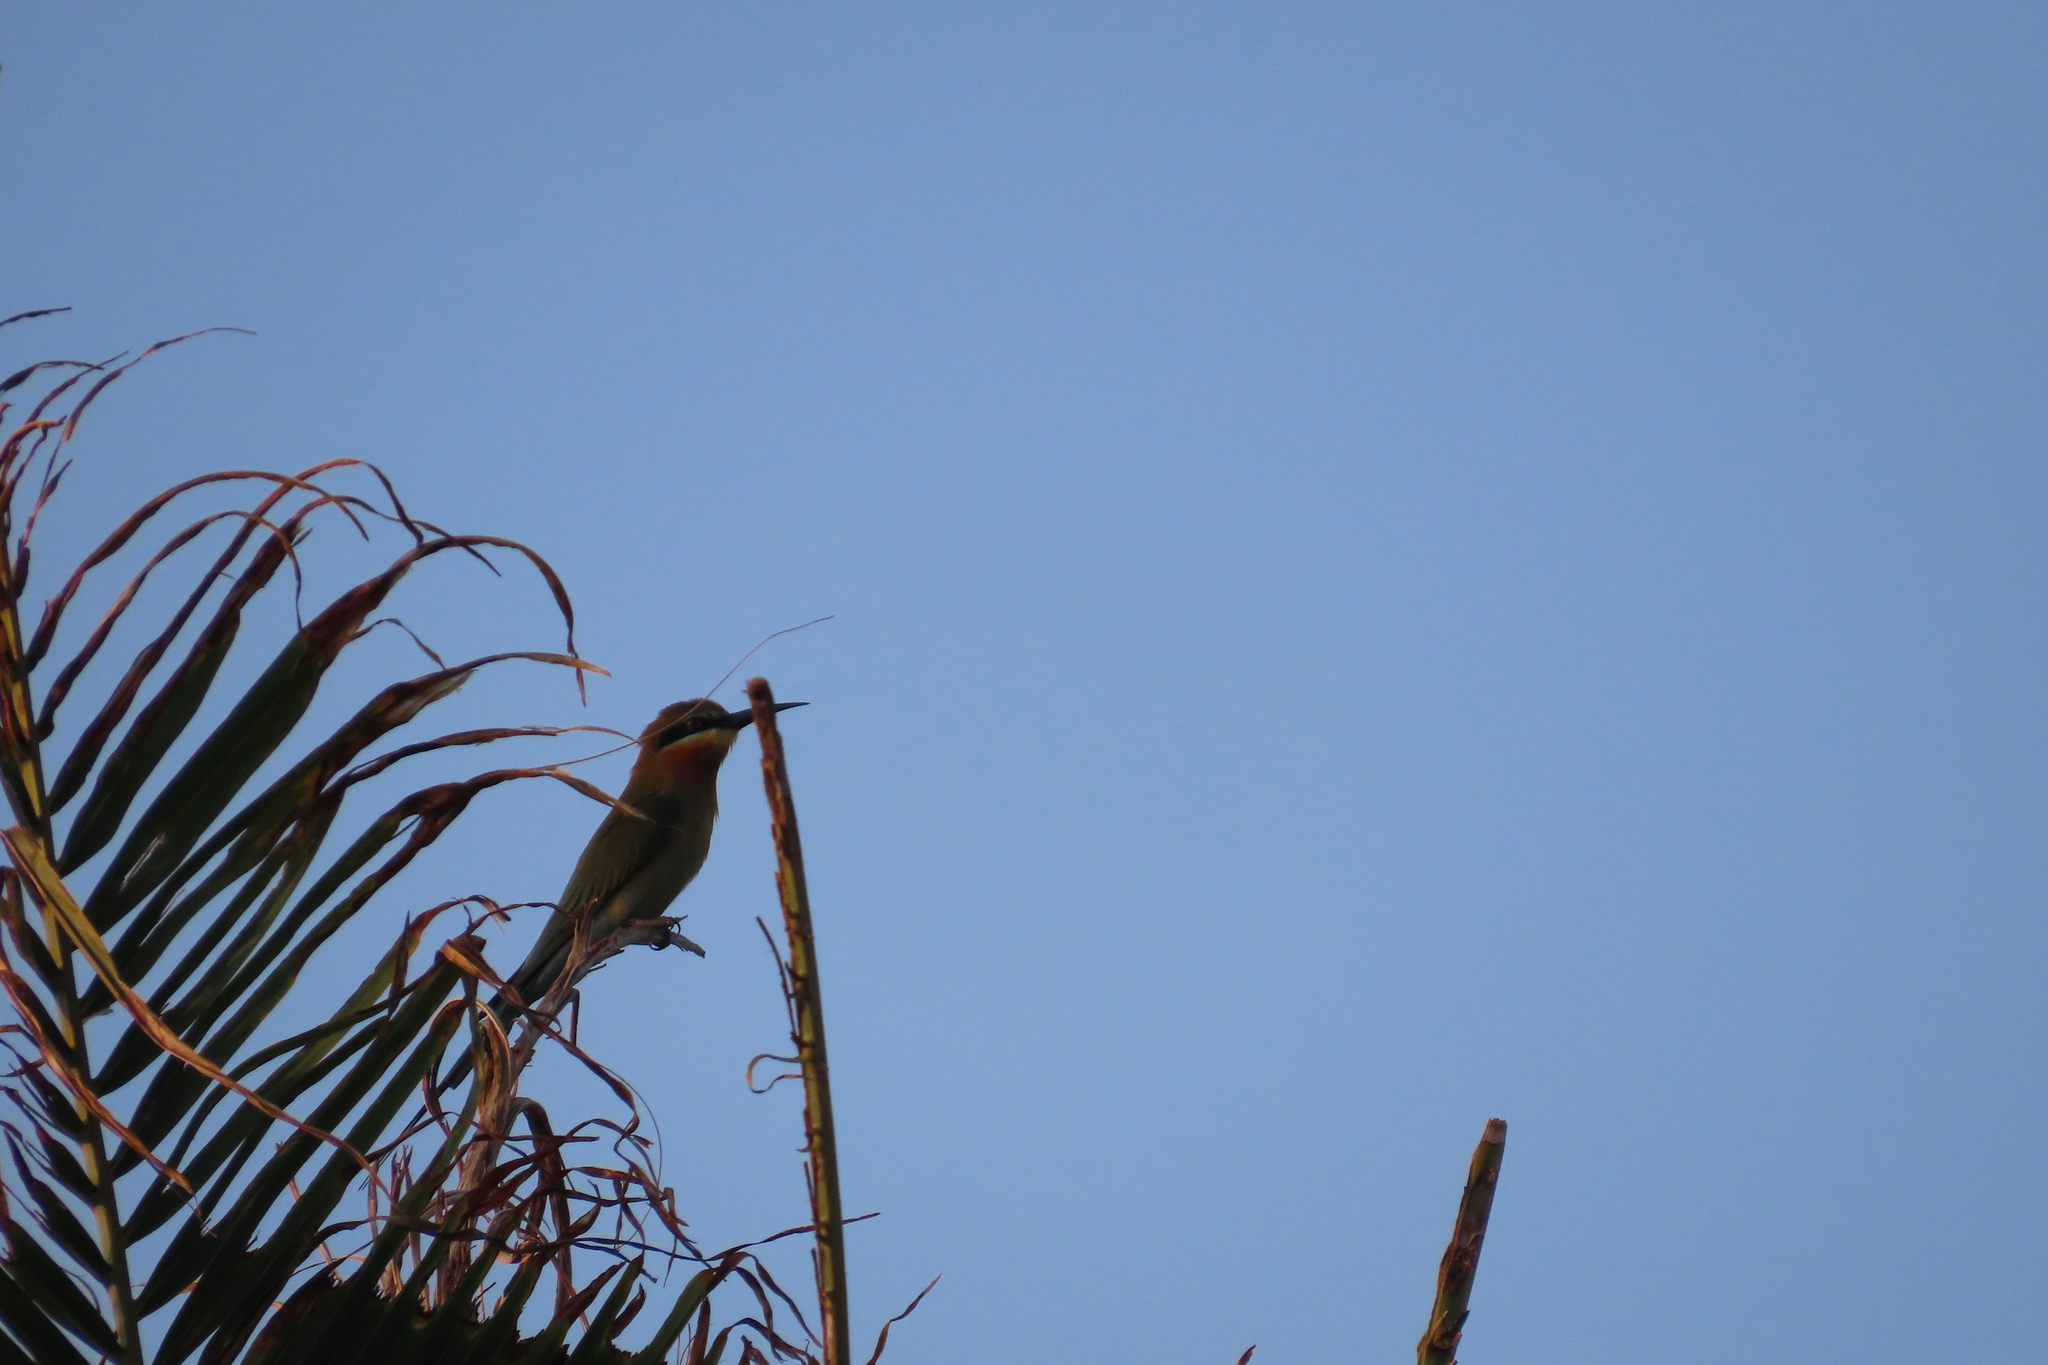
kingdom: Animalia
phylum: Chordata
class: Aves
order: Coraciiformes
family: Meropidae
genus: Merops
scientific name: Merops philippinus
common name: Blue-tailed bee-eater
